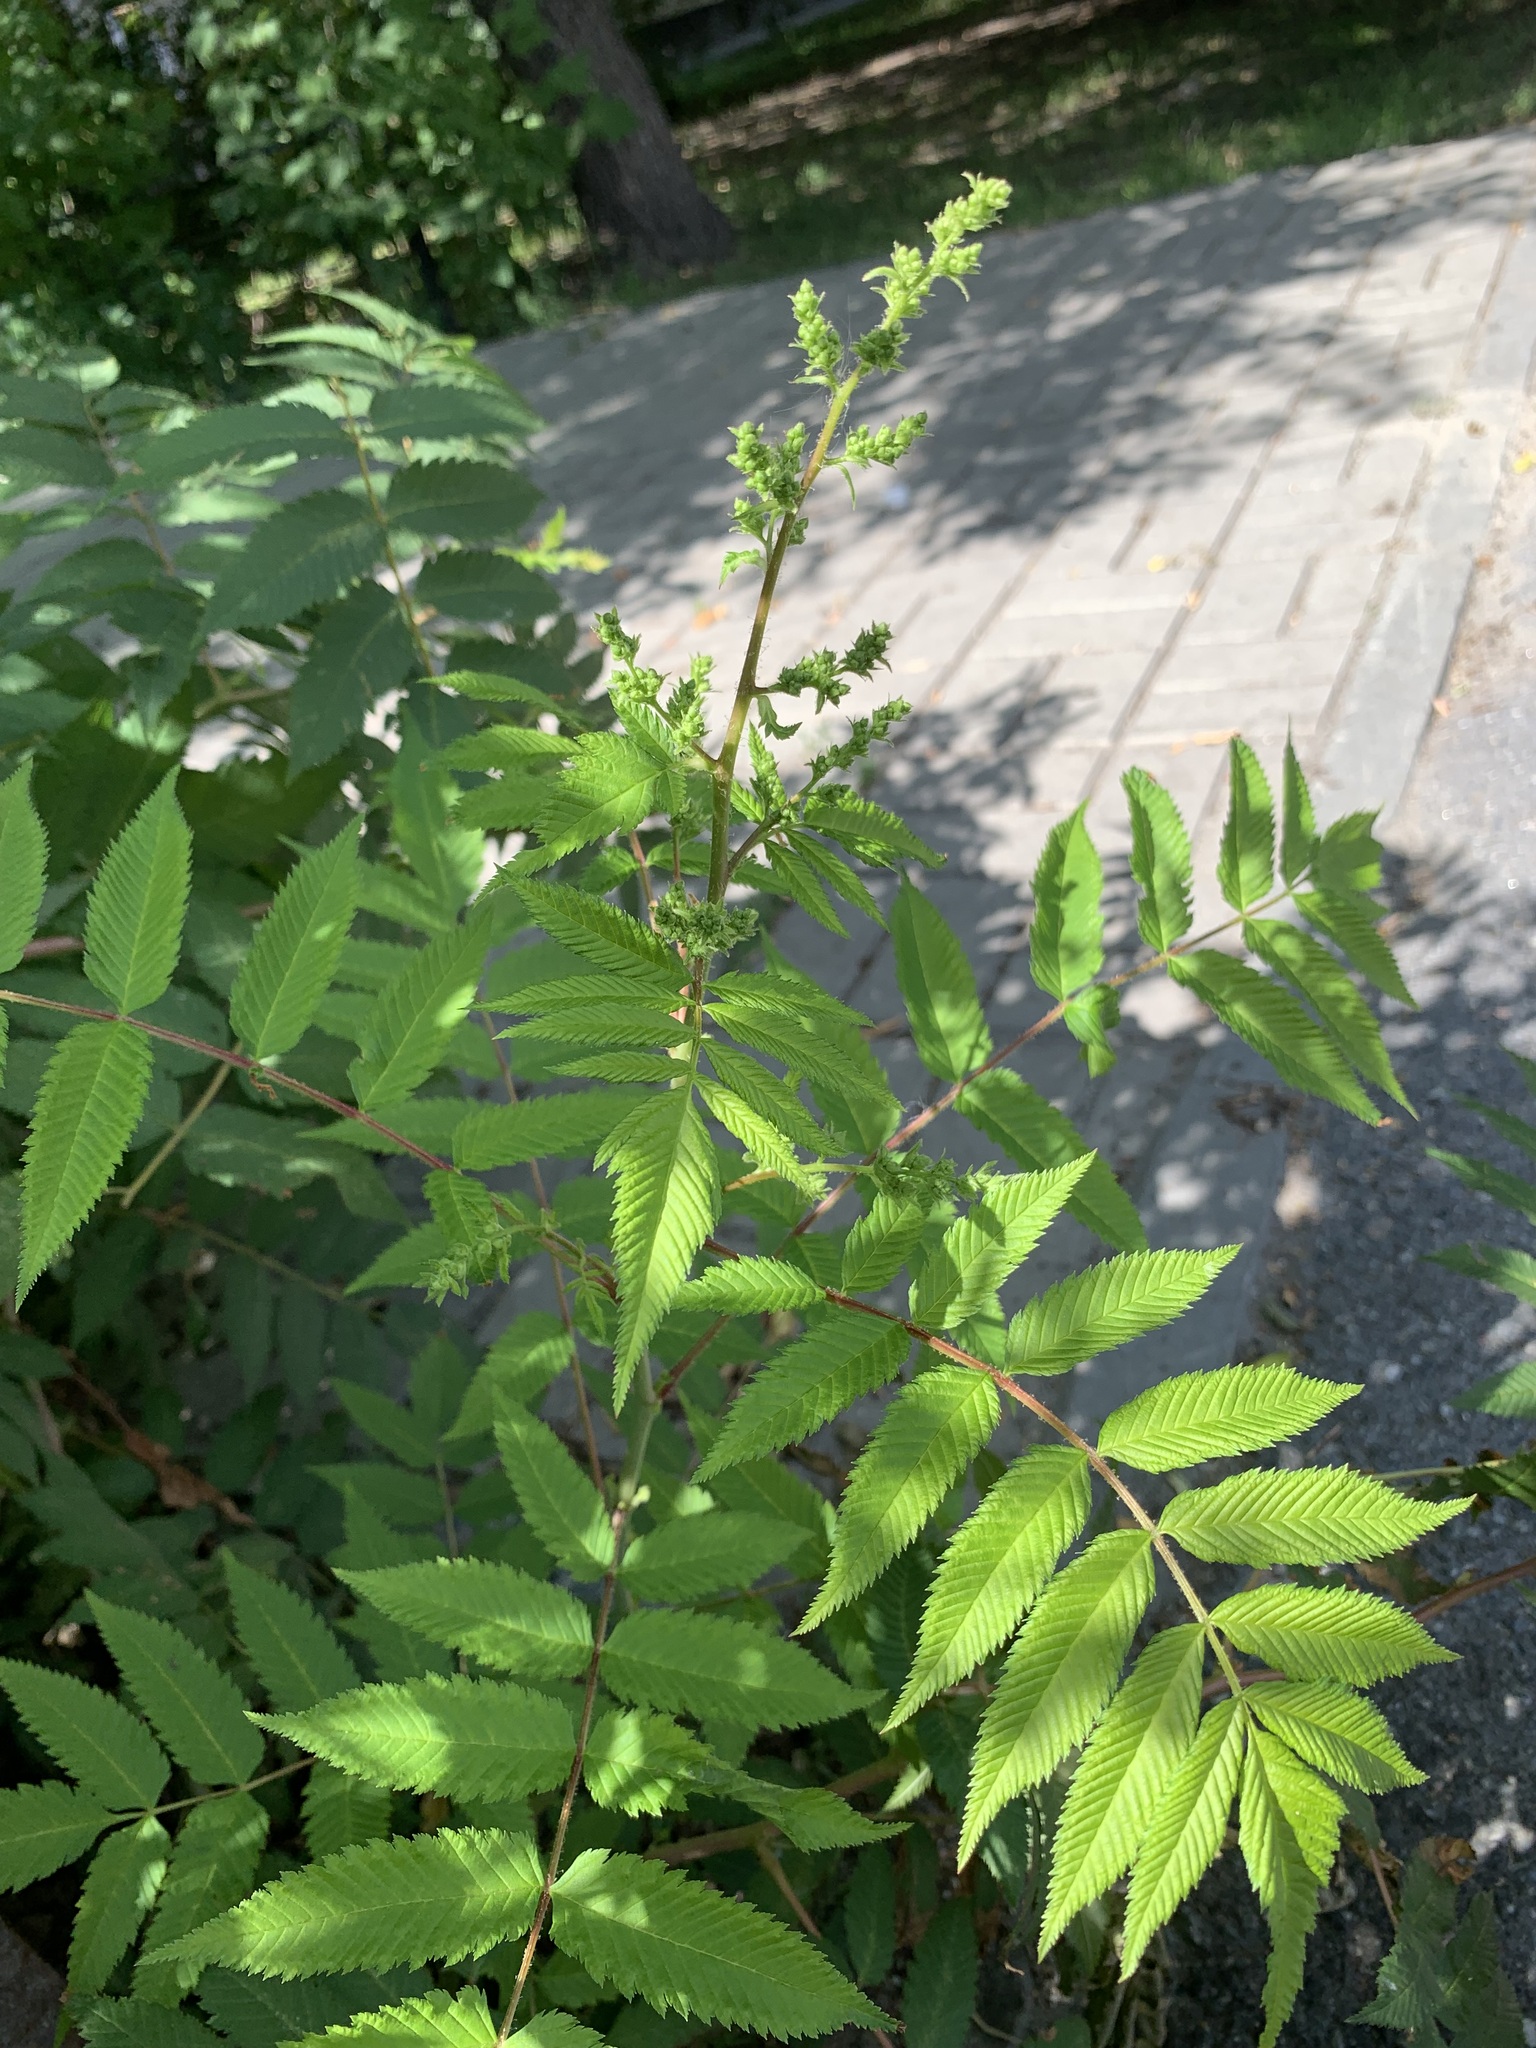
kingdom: Plantae
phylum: Tracheophyta
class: Magnoliopsida
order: Rosales
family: Rosaceae
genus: Sorbaria
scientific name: Sorbaria sorbifolia
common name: False spiraea
